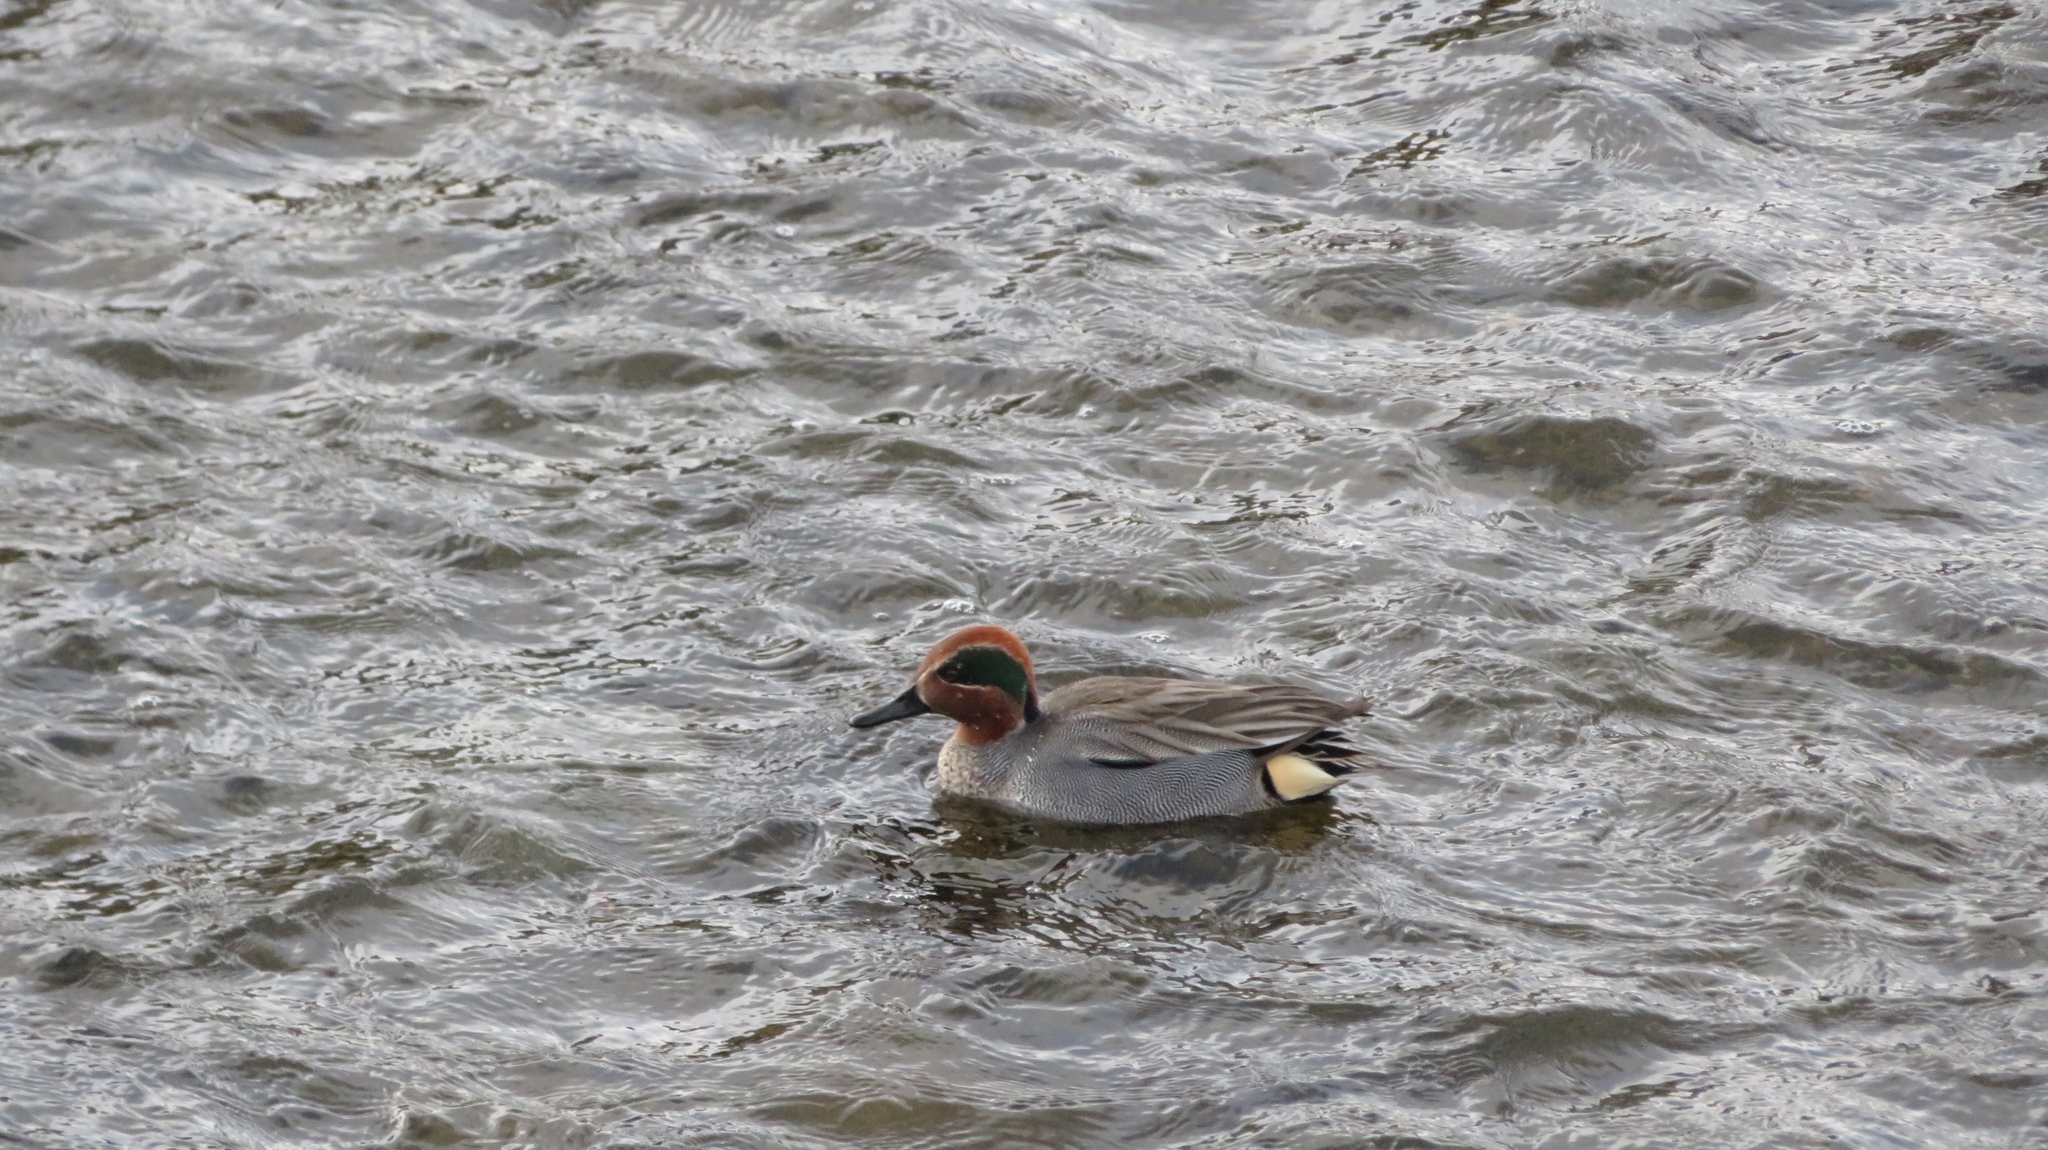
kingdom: Animalia
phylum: Chordata
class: Aves
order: Anseriformes
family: Anatidae
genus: Anas
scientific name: Anas crecca
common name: Eurasian teal
